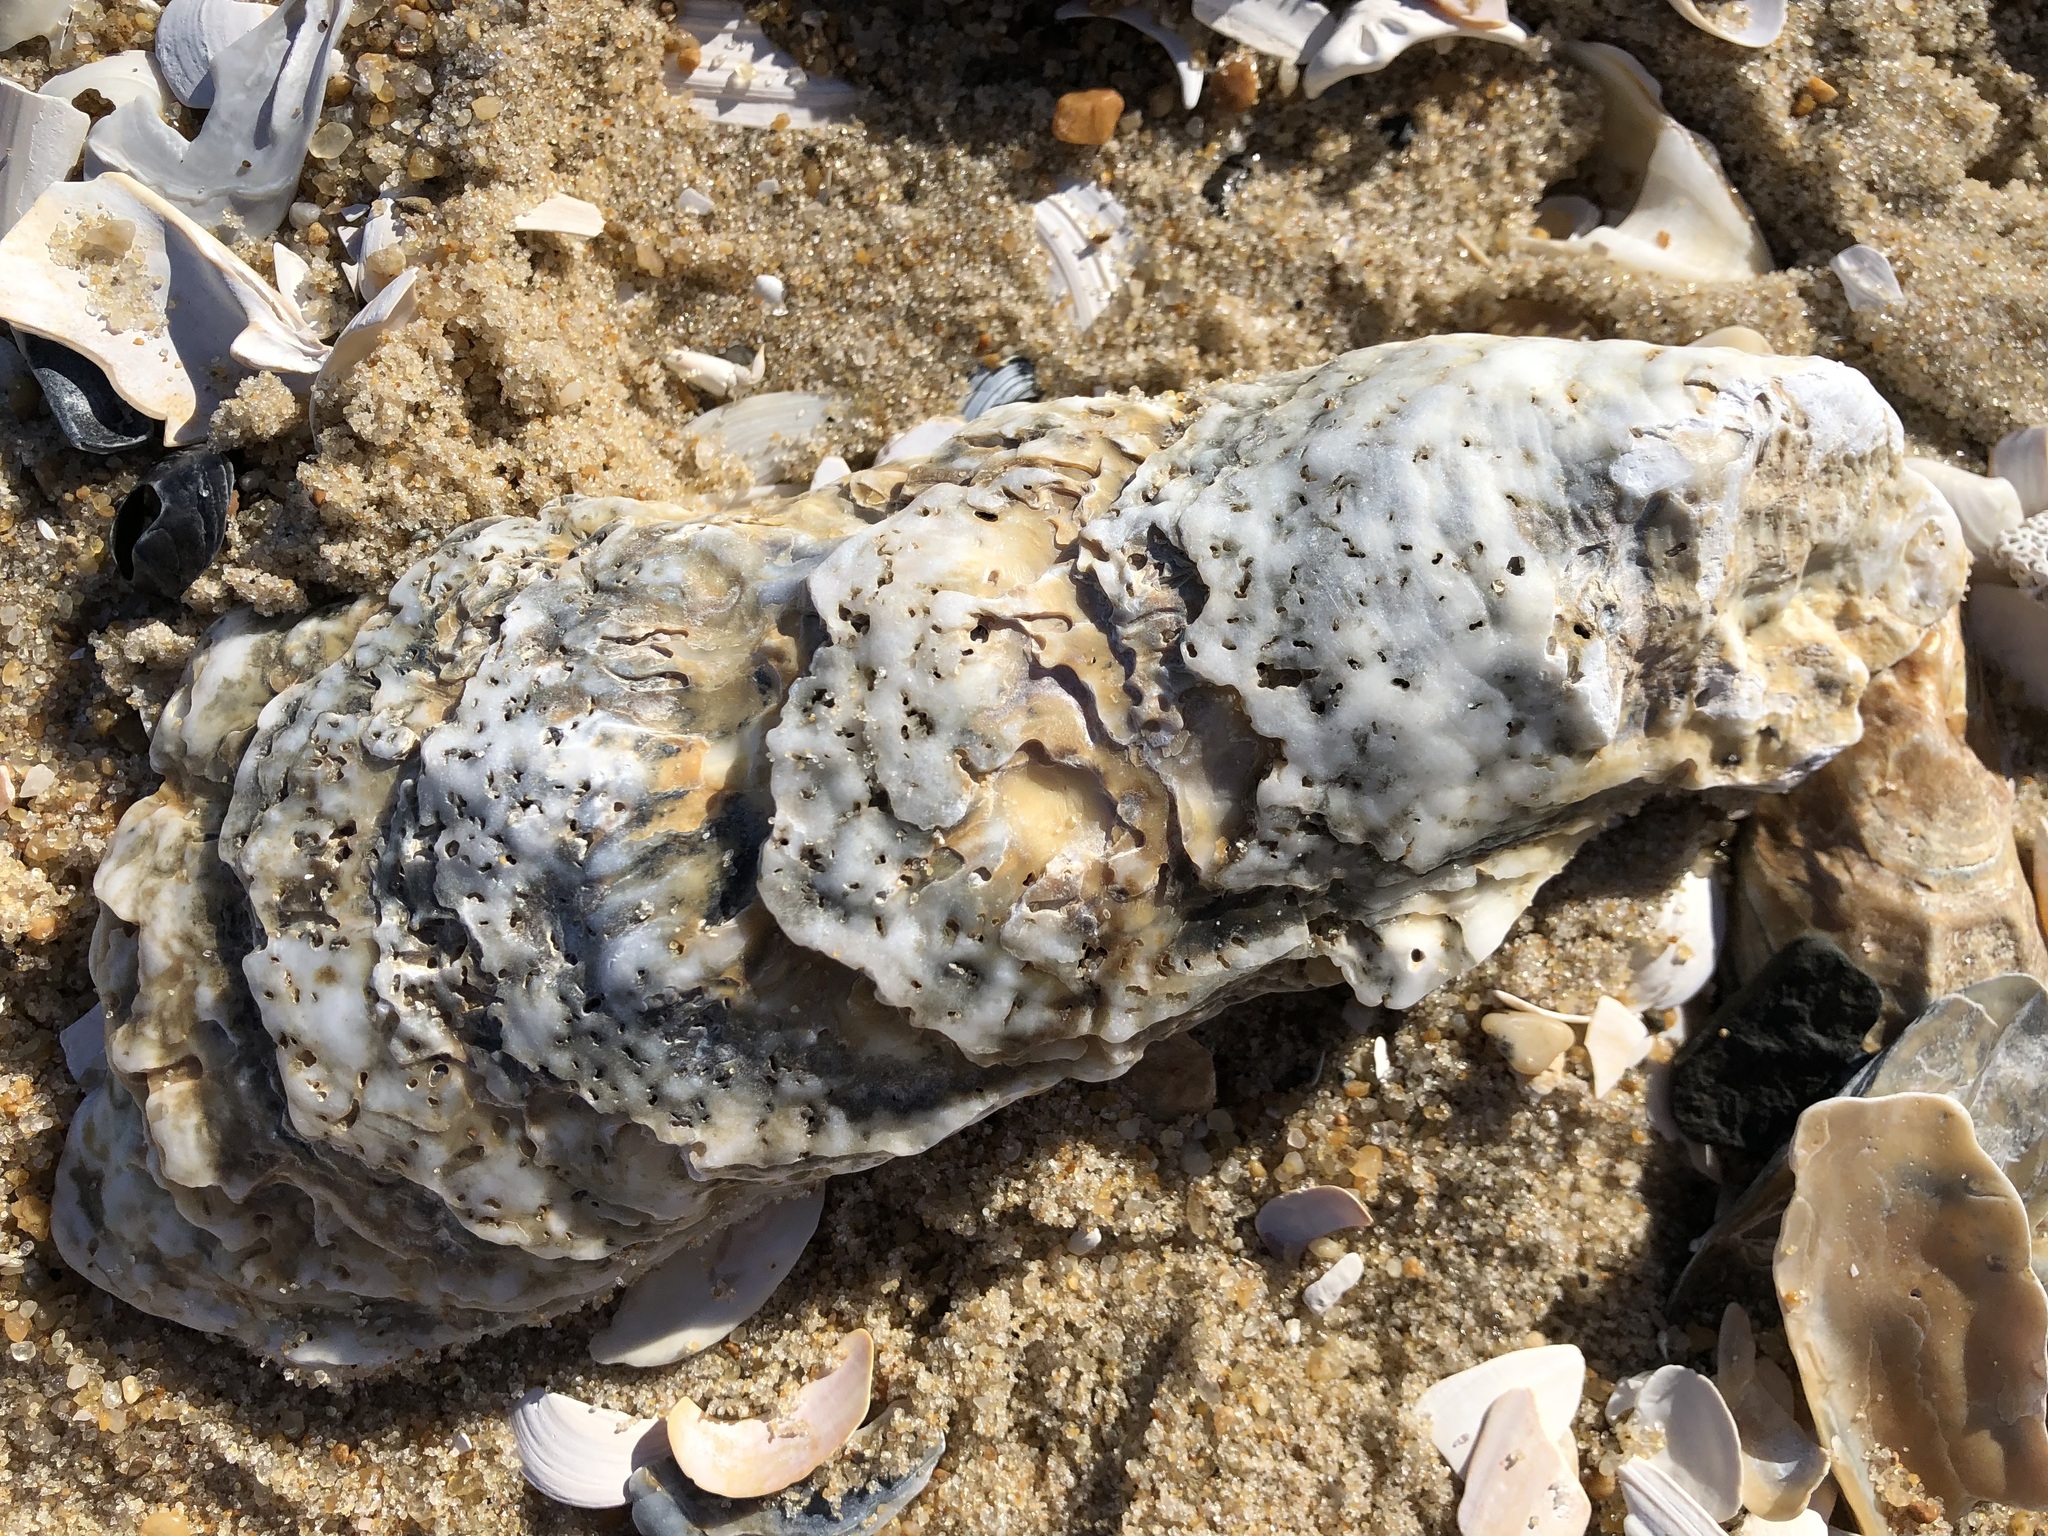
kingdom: Animalia
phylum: Mollusca
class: Bivalvia
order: Ostreida
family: Ostreidae
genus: Crassostrea
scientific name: Crassostrea virginica
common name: American oyster
